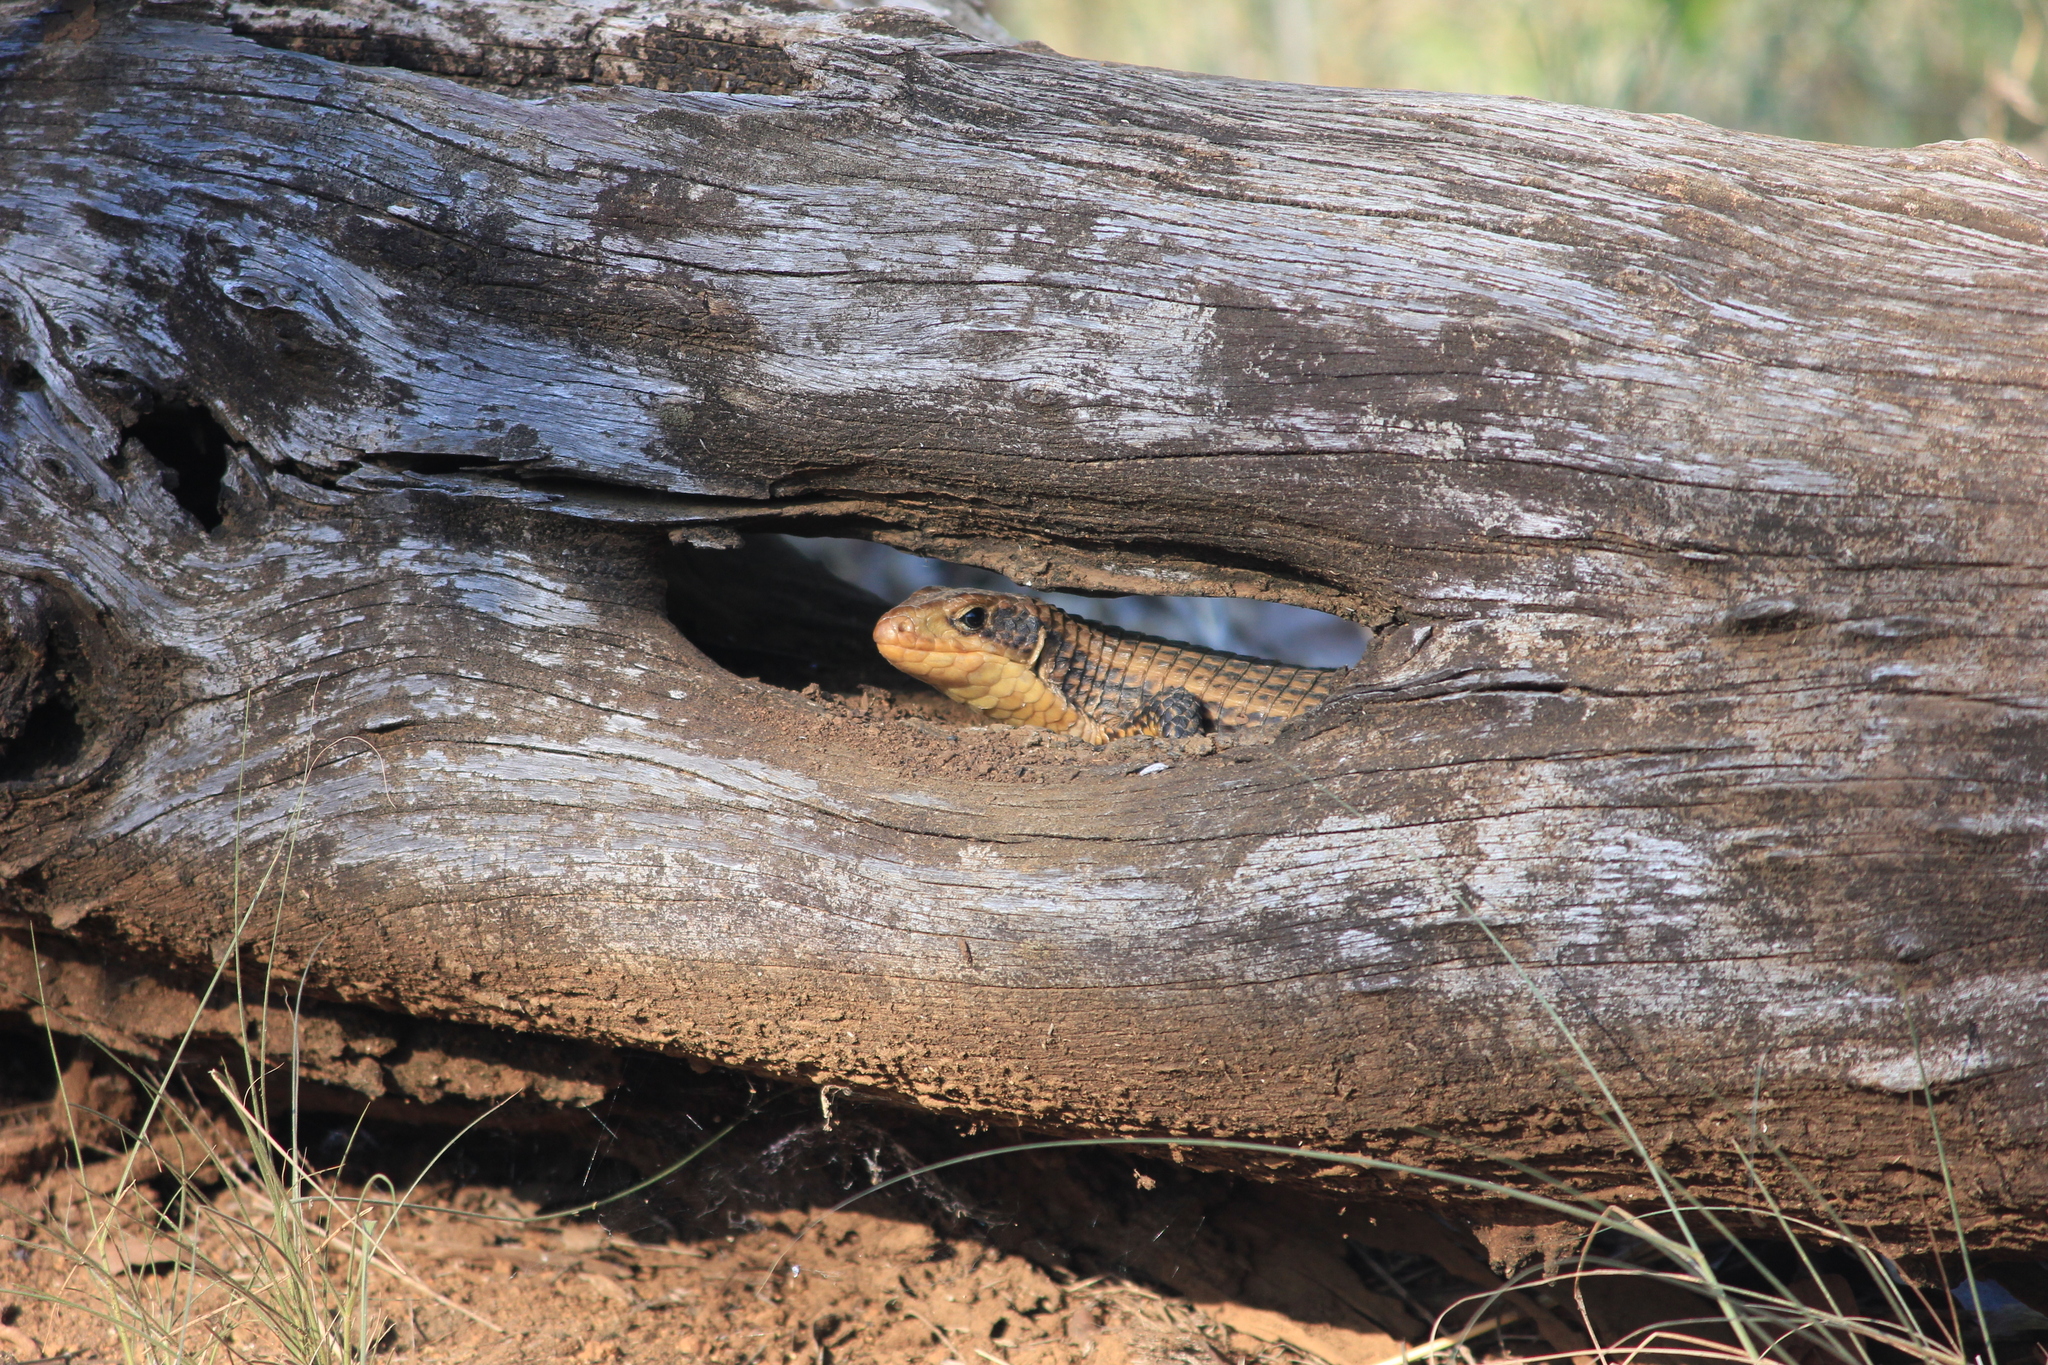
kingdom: Animalia
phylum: Chordata
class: Squamata
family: Gerrhosauridae
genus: Broadleysaurus
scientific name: Broadleysaurus major
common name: Rough-scaled plated lizard
